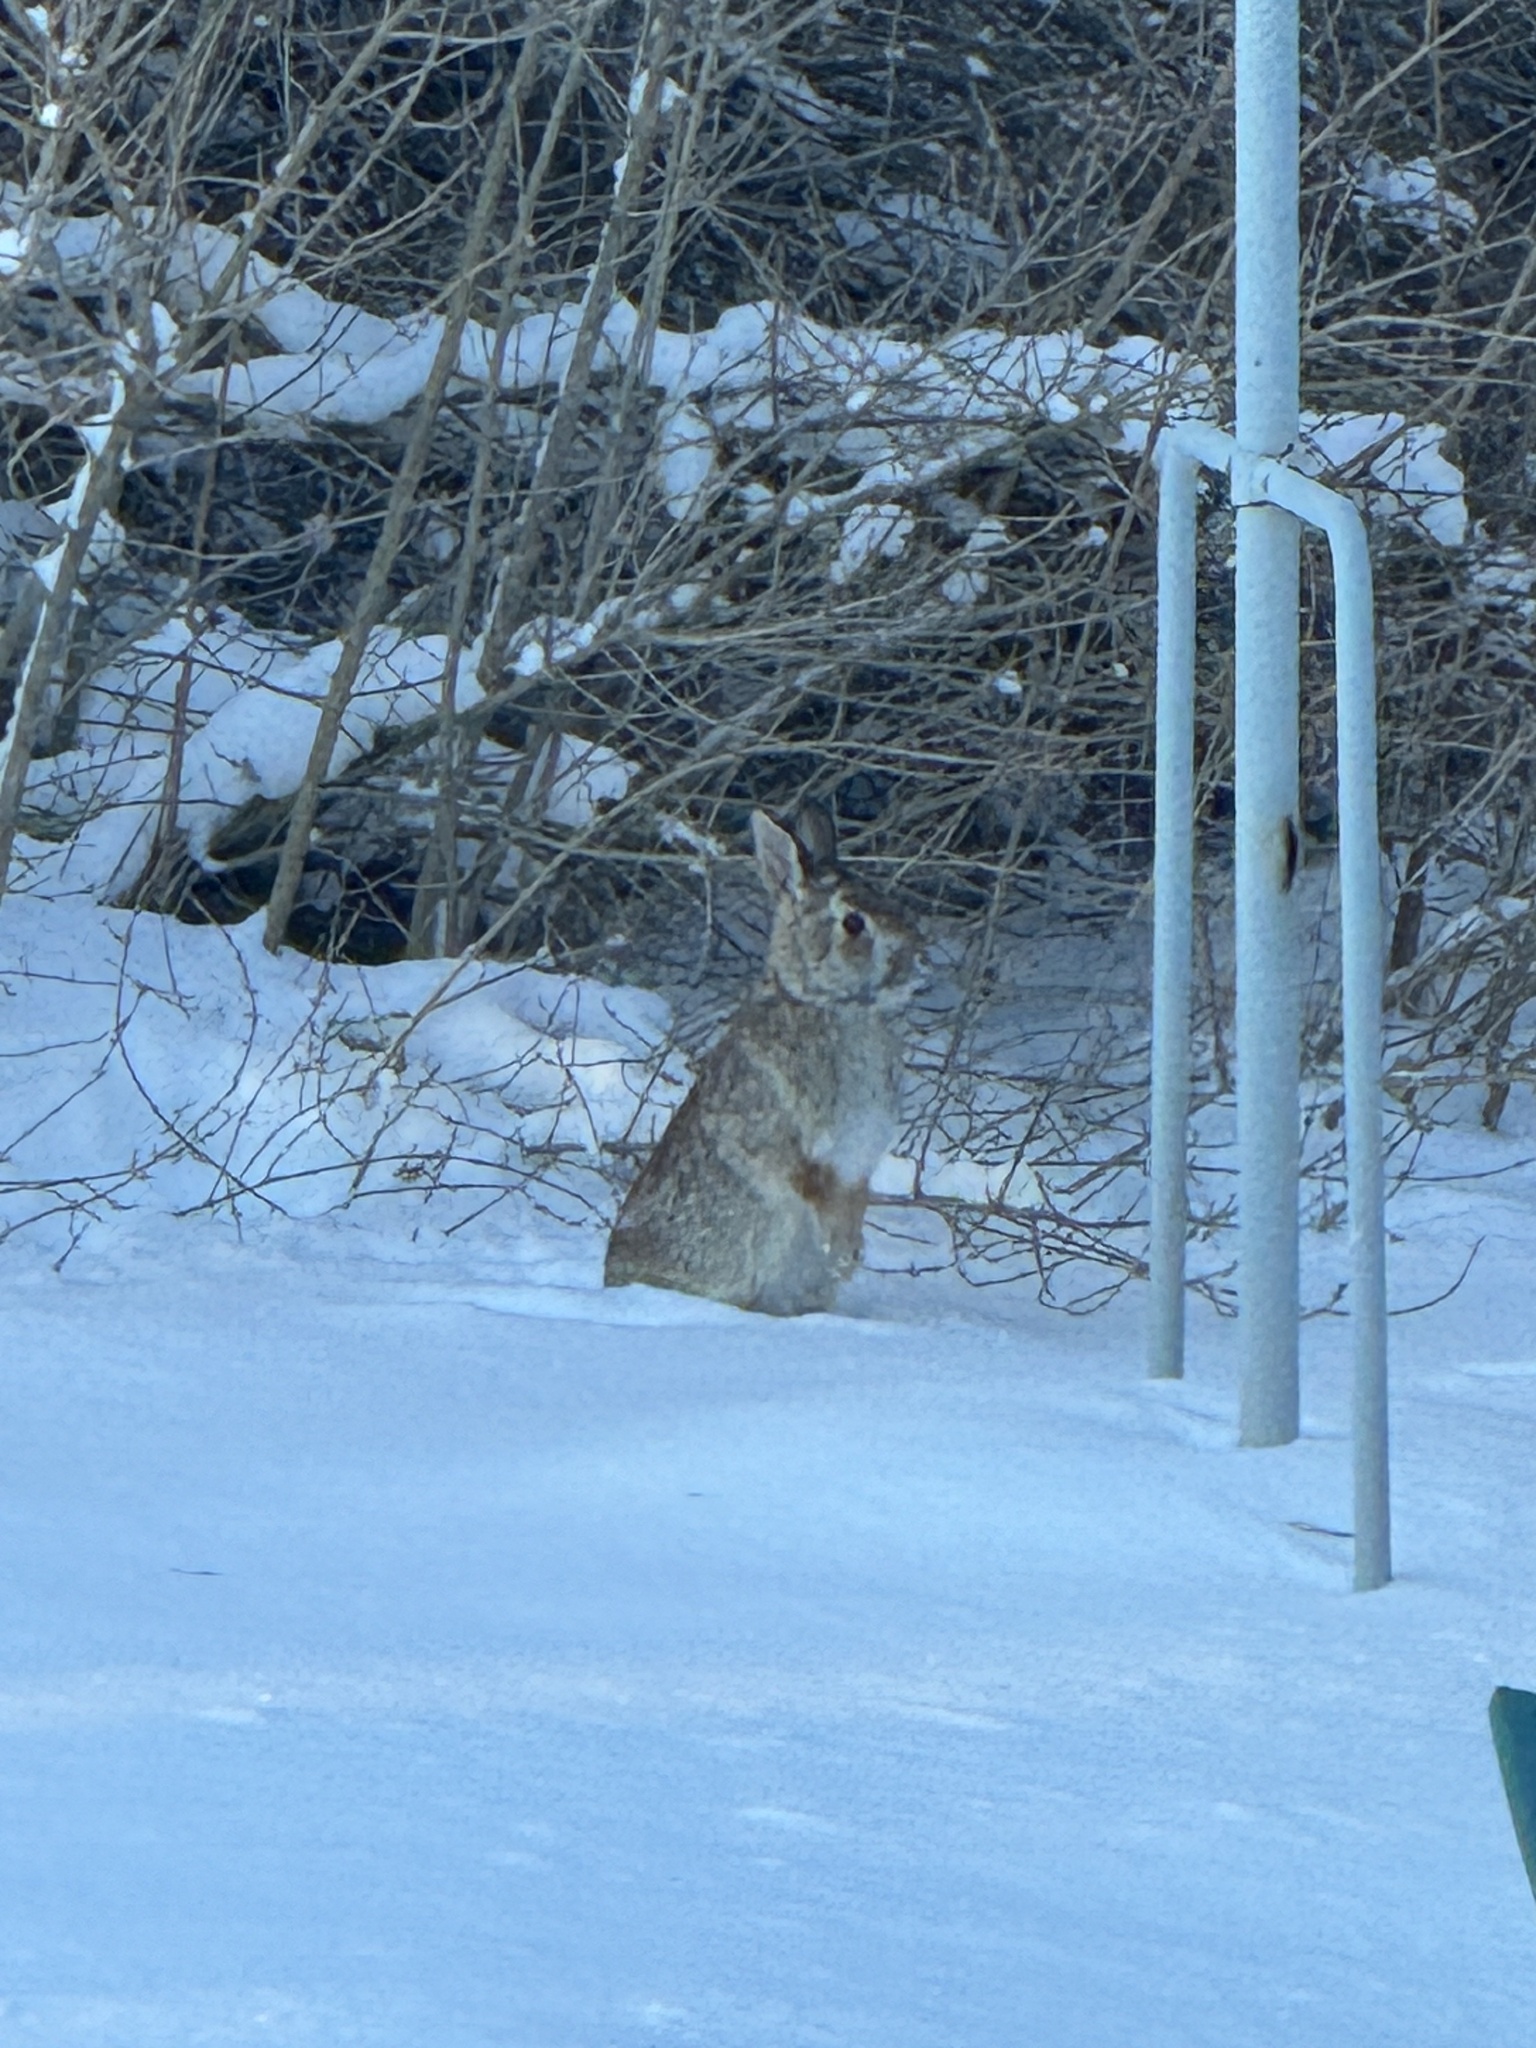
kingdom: Animalia
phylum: Chordata
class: Mammalia
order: Lagomorpha
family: Leporidae
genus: Sylvilagus
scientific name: Sylvilagus floridanus
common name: Eastern cottontail
